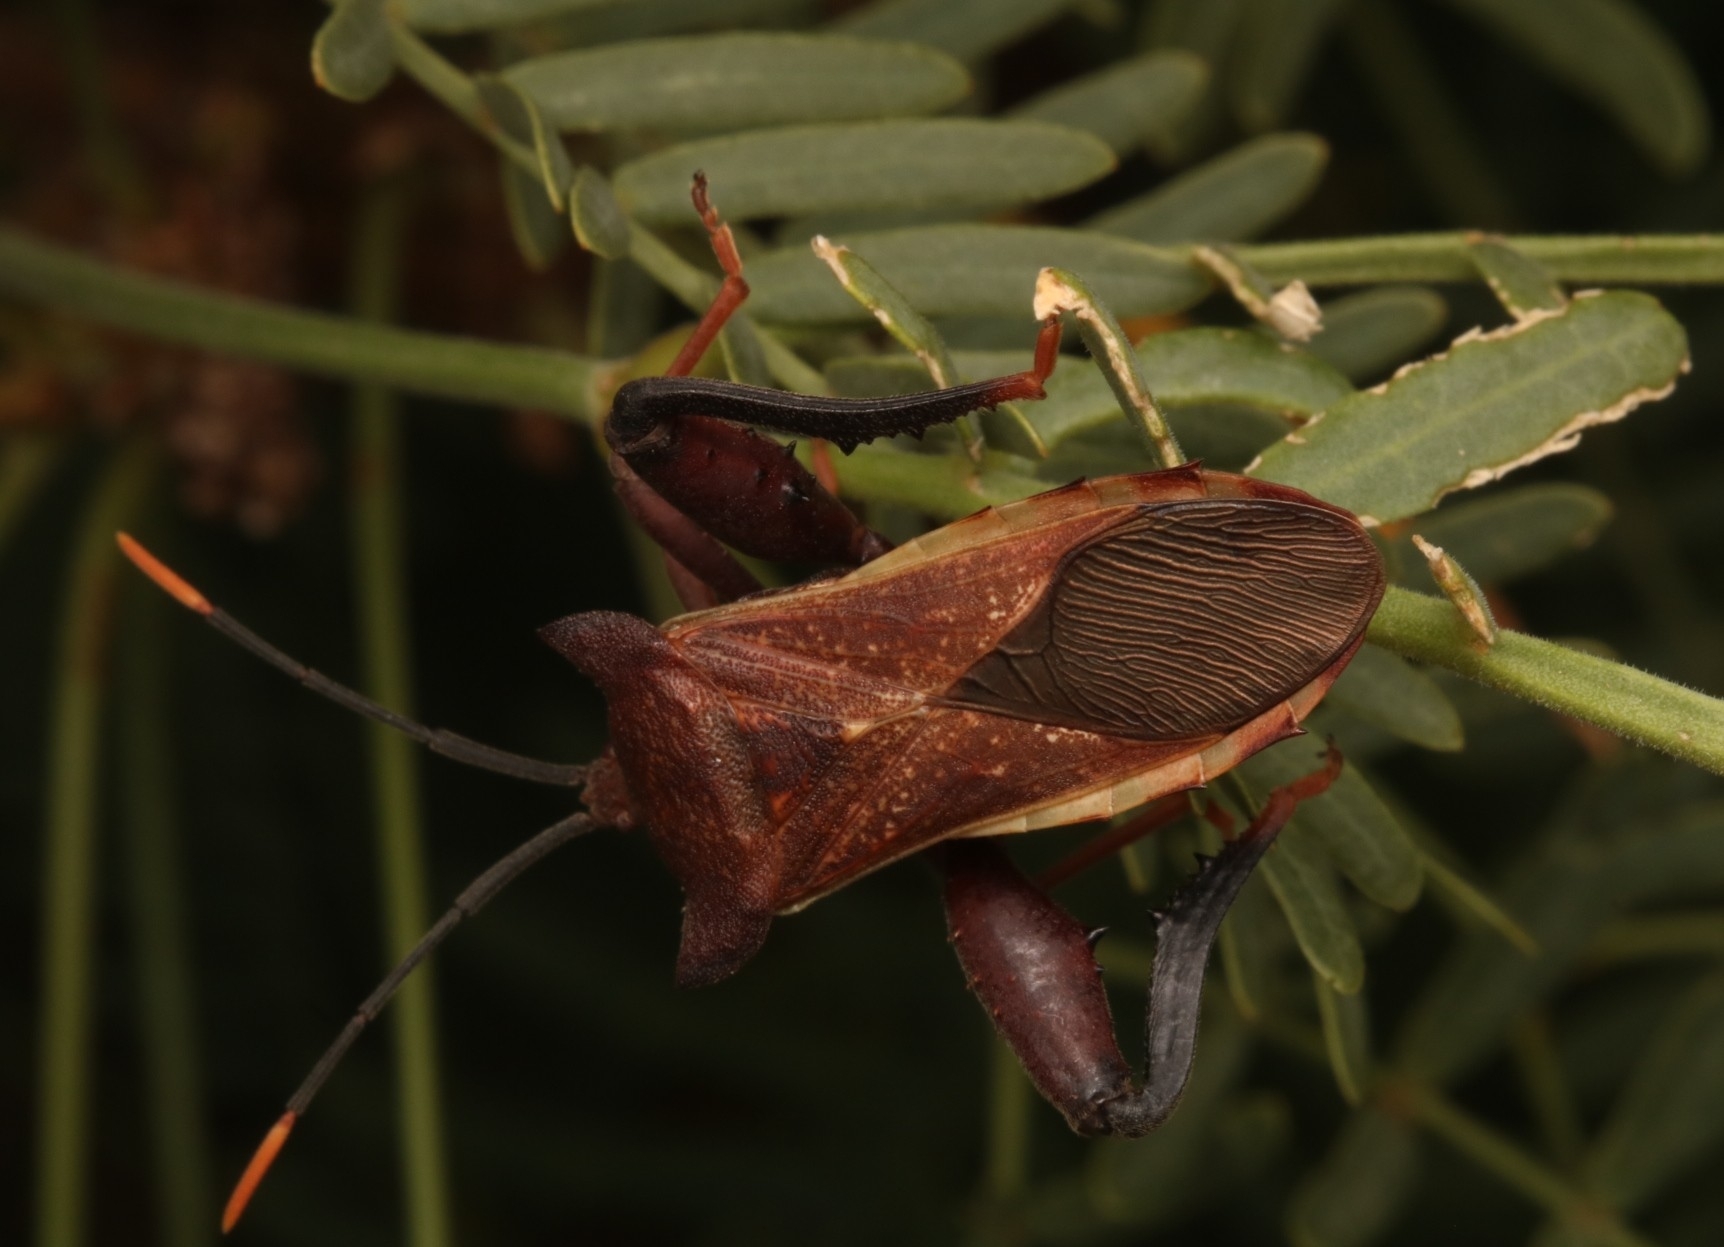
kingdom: Animalia
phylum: Arthropoda
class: Insecta
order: Hemiptera
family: Coreidae
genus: Mozena
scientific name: Mozena lunata
